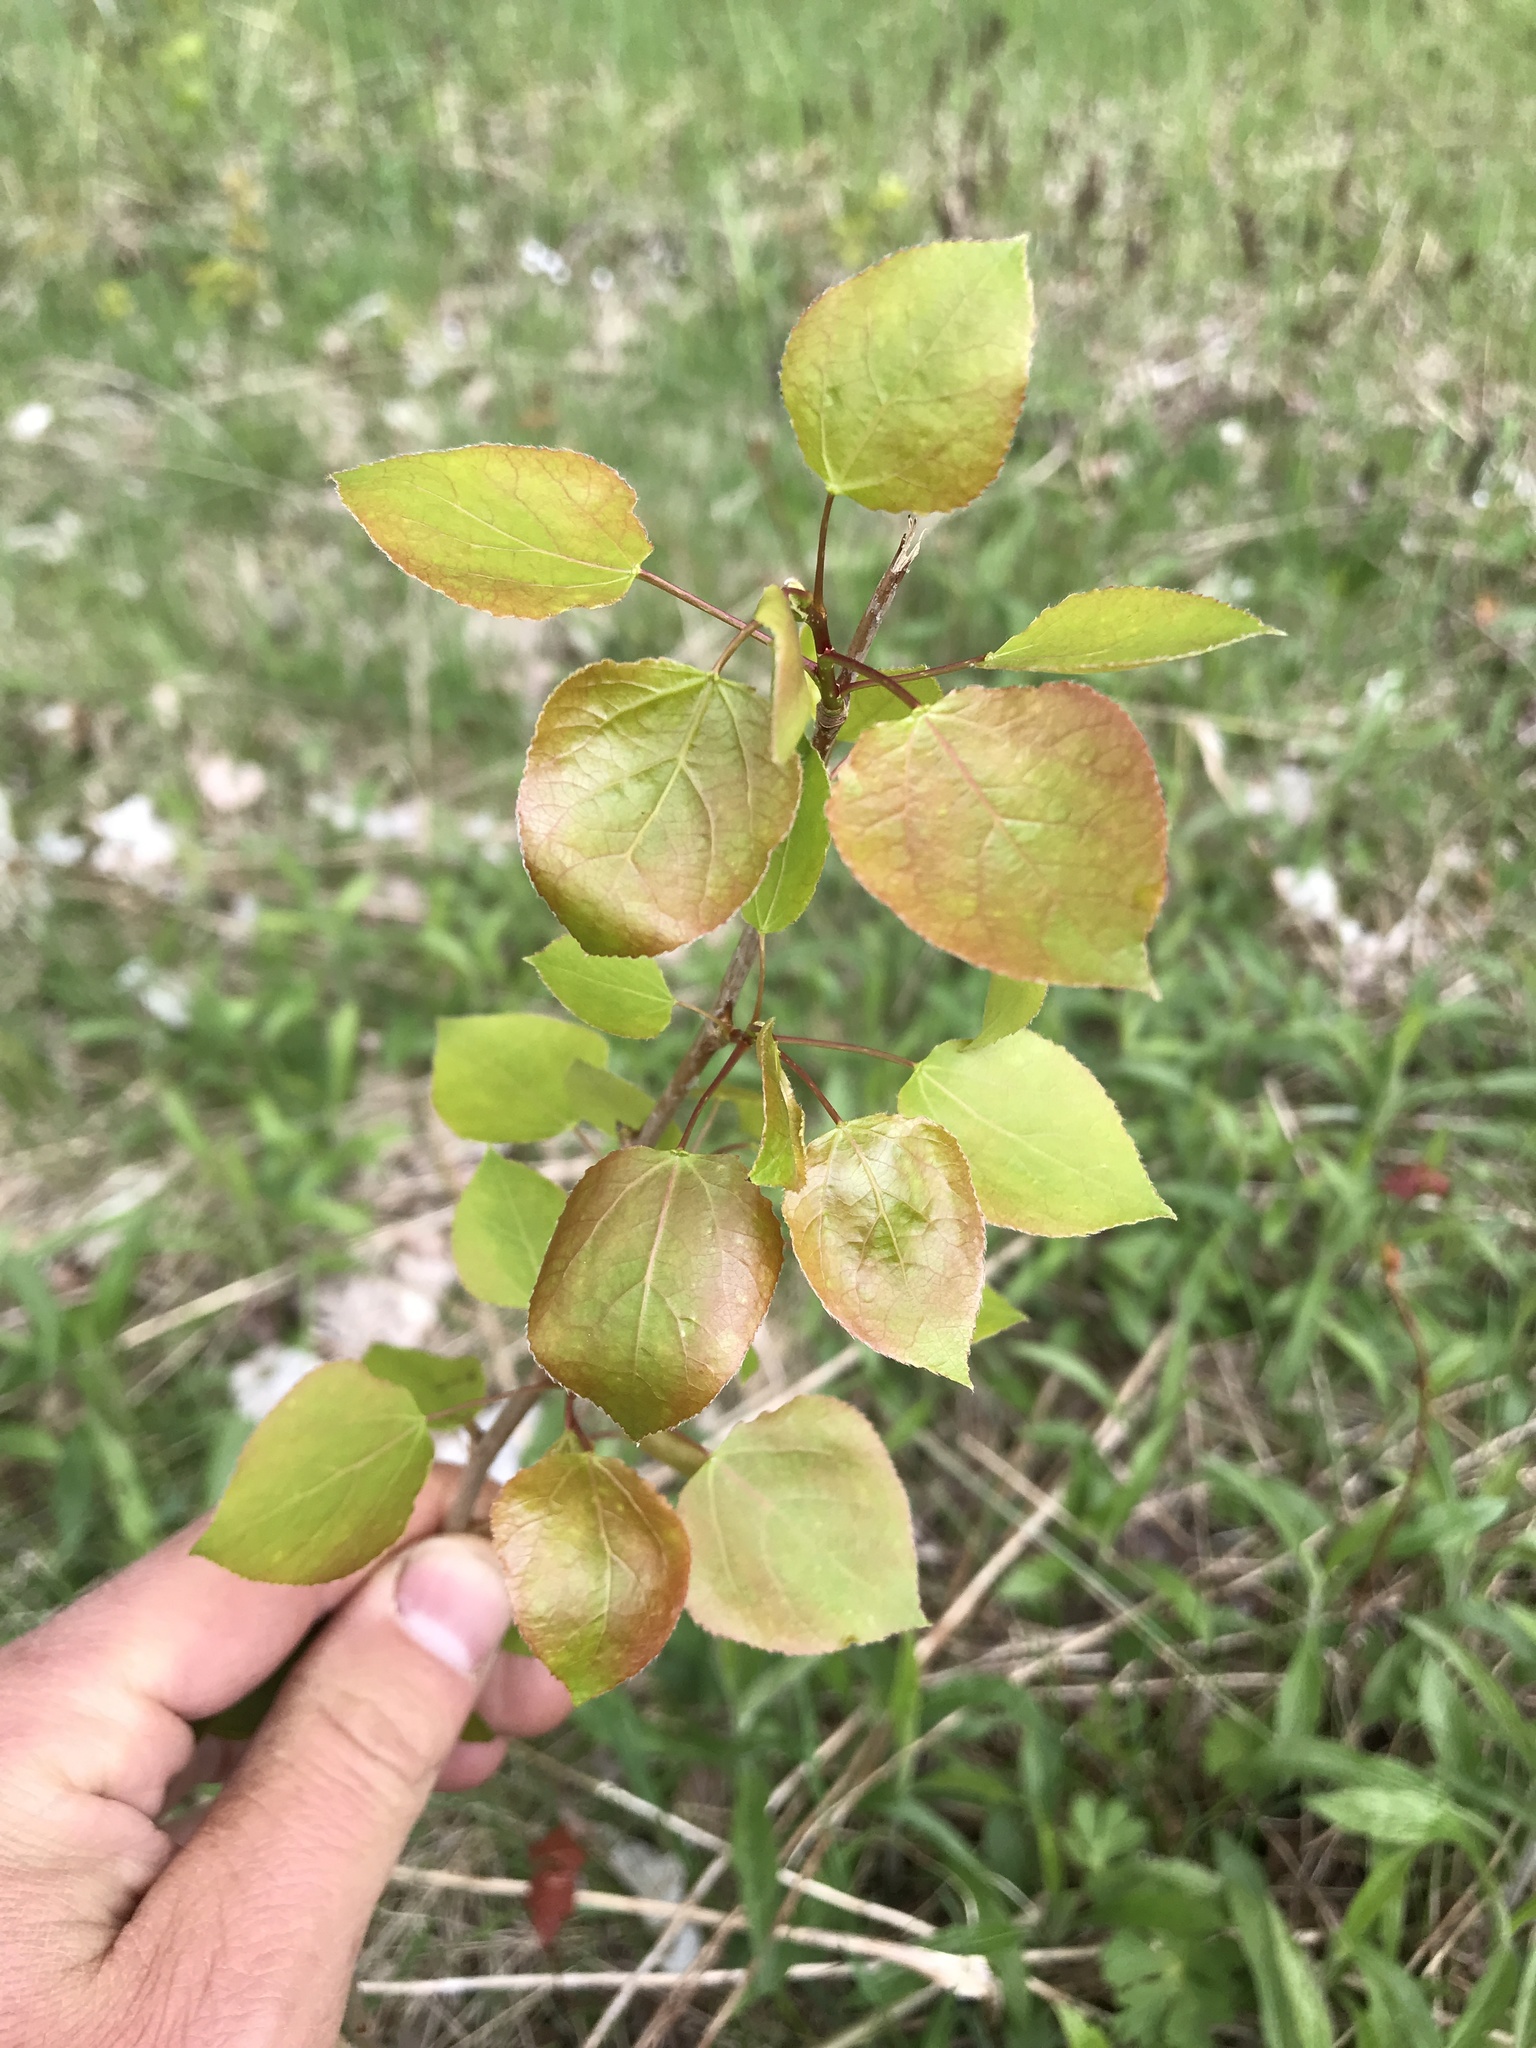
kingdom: Plantae
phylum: Tracheophyta
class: Magnoliopsida
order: Malpighiales
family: Salicaceae
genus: Populus
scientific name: Populus tremuloides
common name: Quaking aspen
